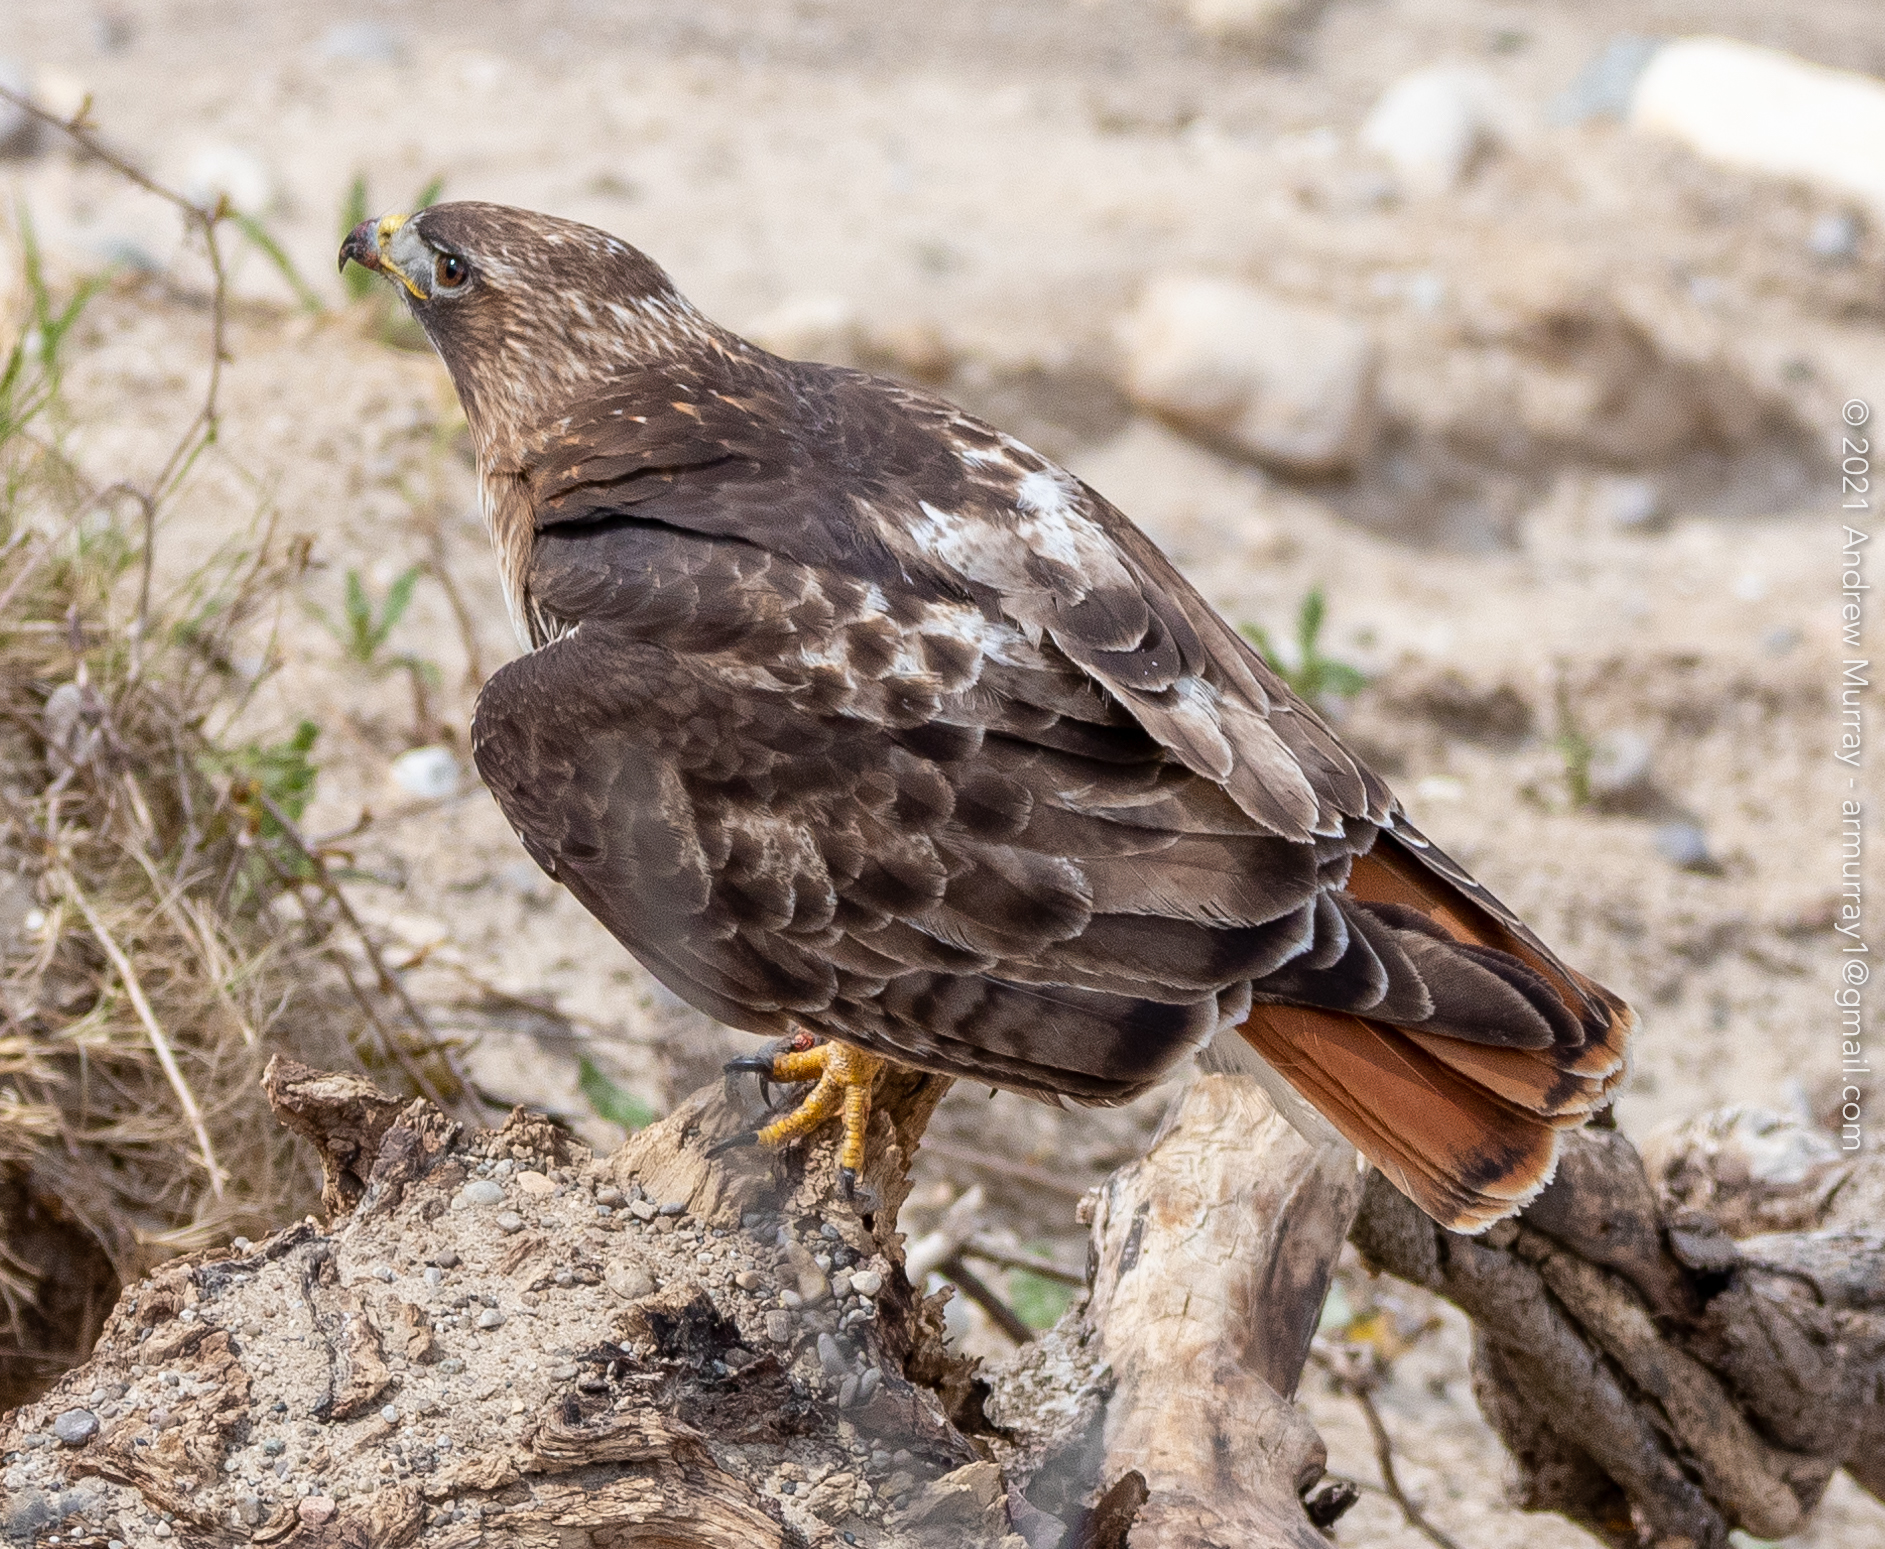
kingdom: Animalia
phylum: Chordata
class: Aves
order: Accipitriformes
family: Accipitridae
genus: Buteo
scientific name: Buteo jamaicensis
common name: Red-tailed hawk
